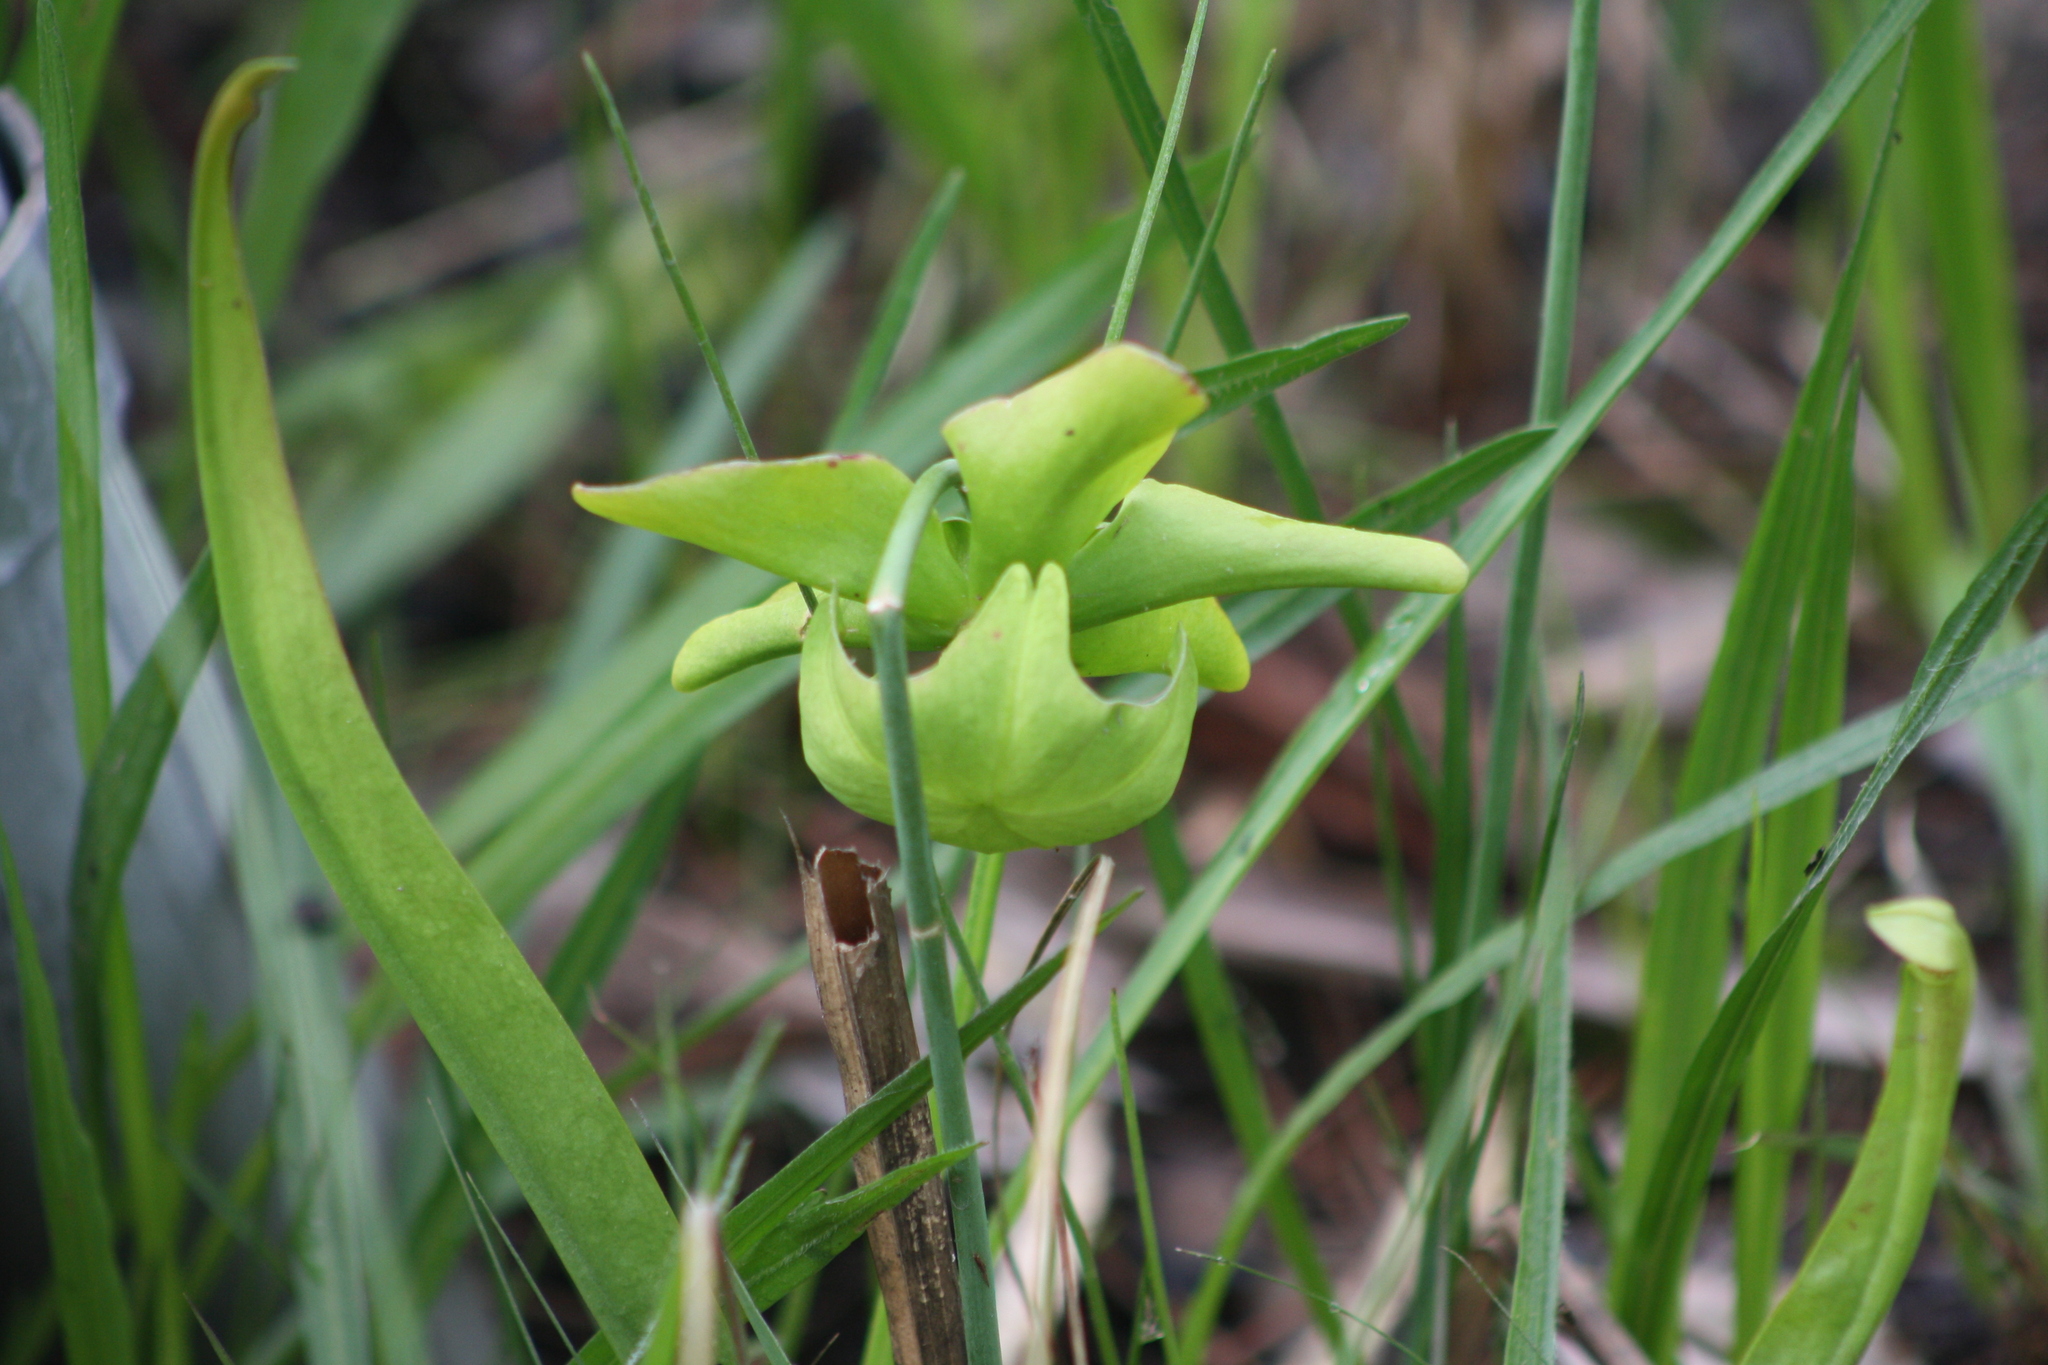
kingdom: Plantae
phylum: Tracheophyta
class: Magnoliopsida
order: Ericales
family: Sarraceniaceae
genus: Sarracenia
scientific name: Sarracenia alata
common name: Yellow trumpets
